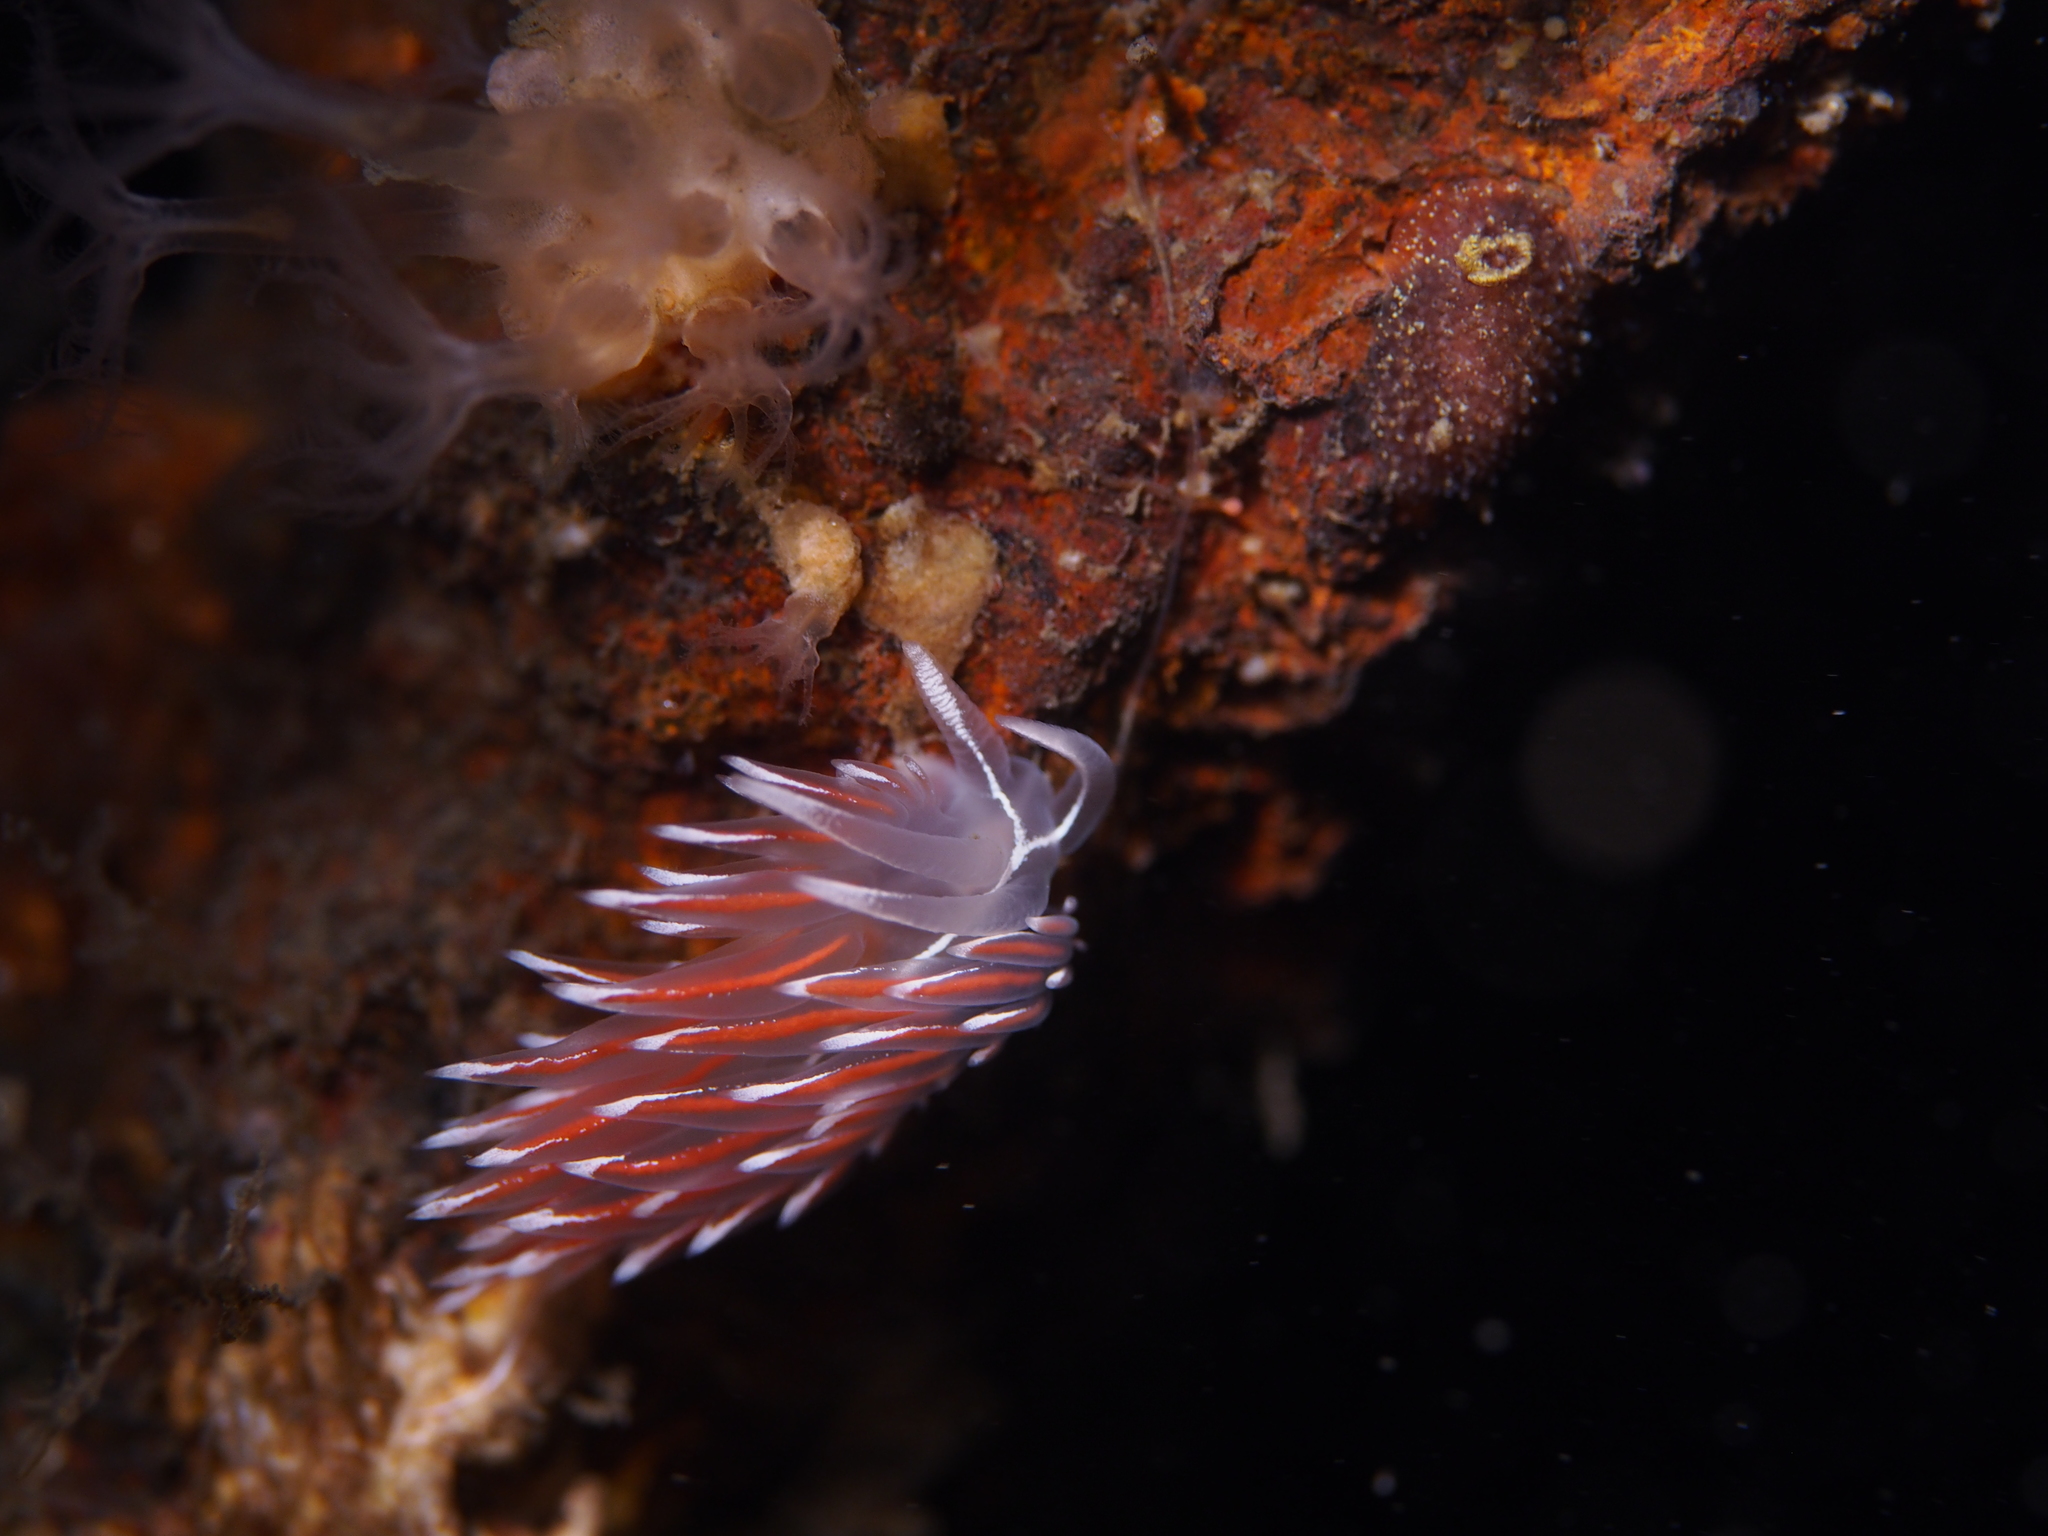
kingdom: Animalia
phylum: Mollusca
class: Gastropoda
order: Nudibranchia
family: Coryphellidae
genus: Coryphella
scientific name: Coryphella lineata
